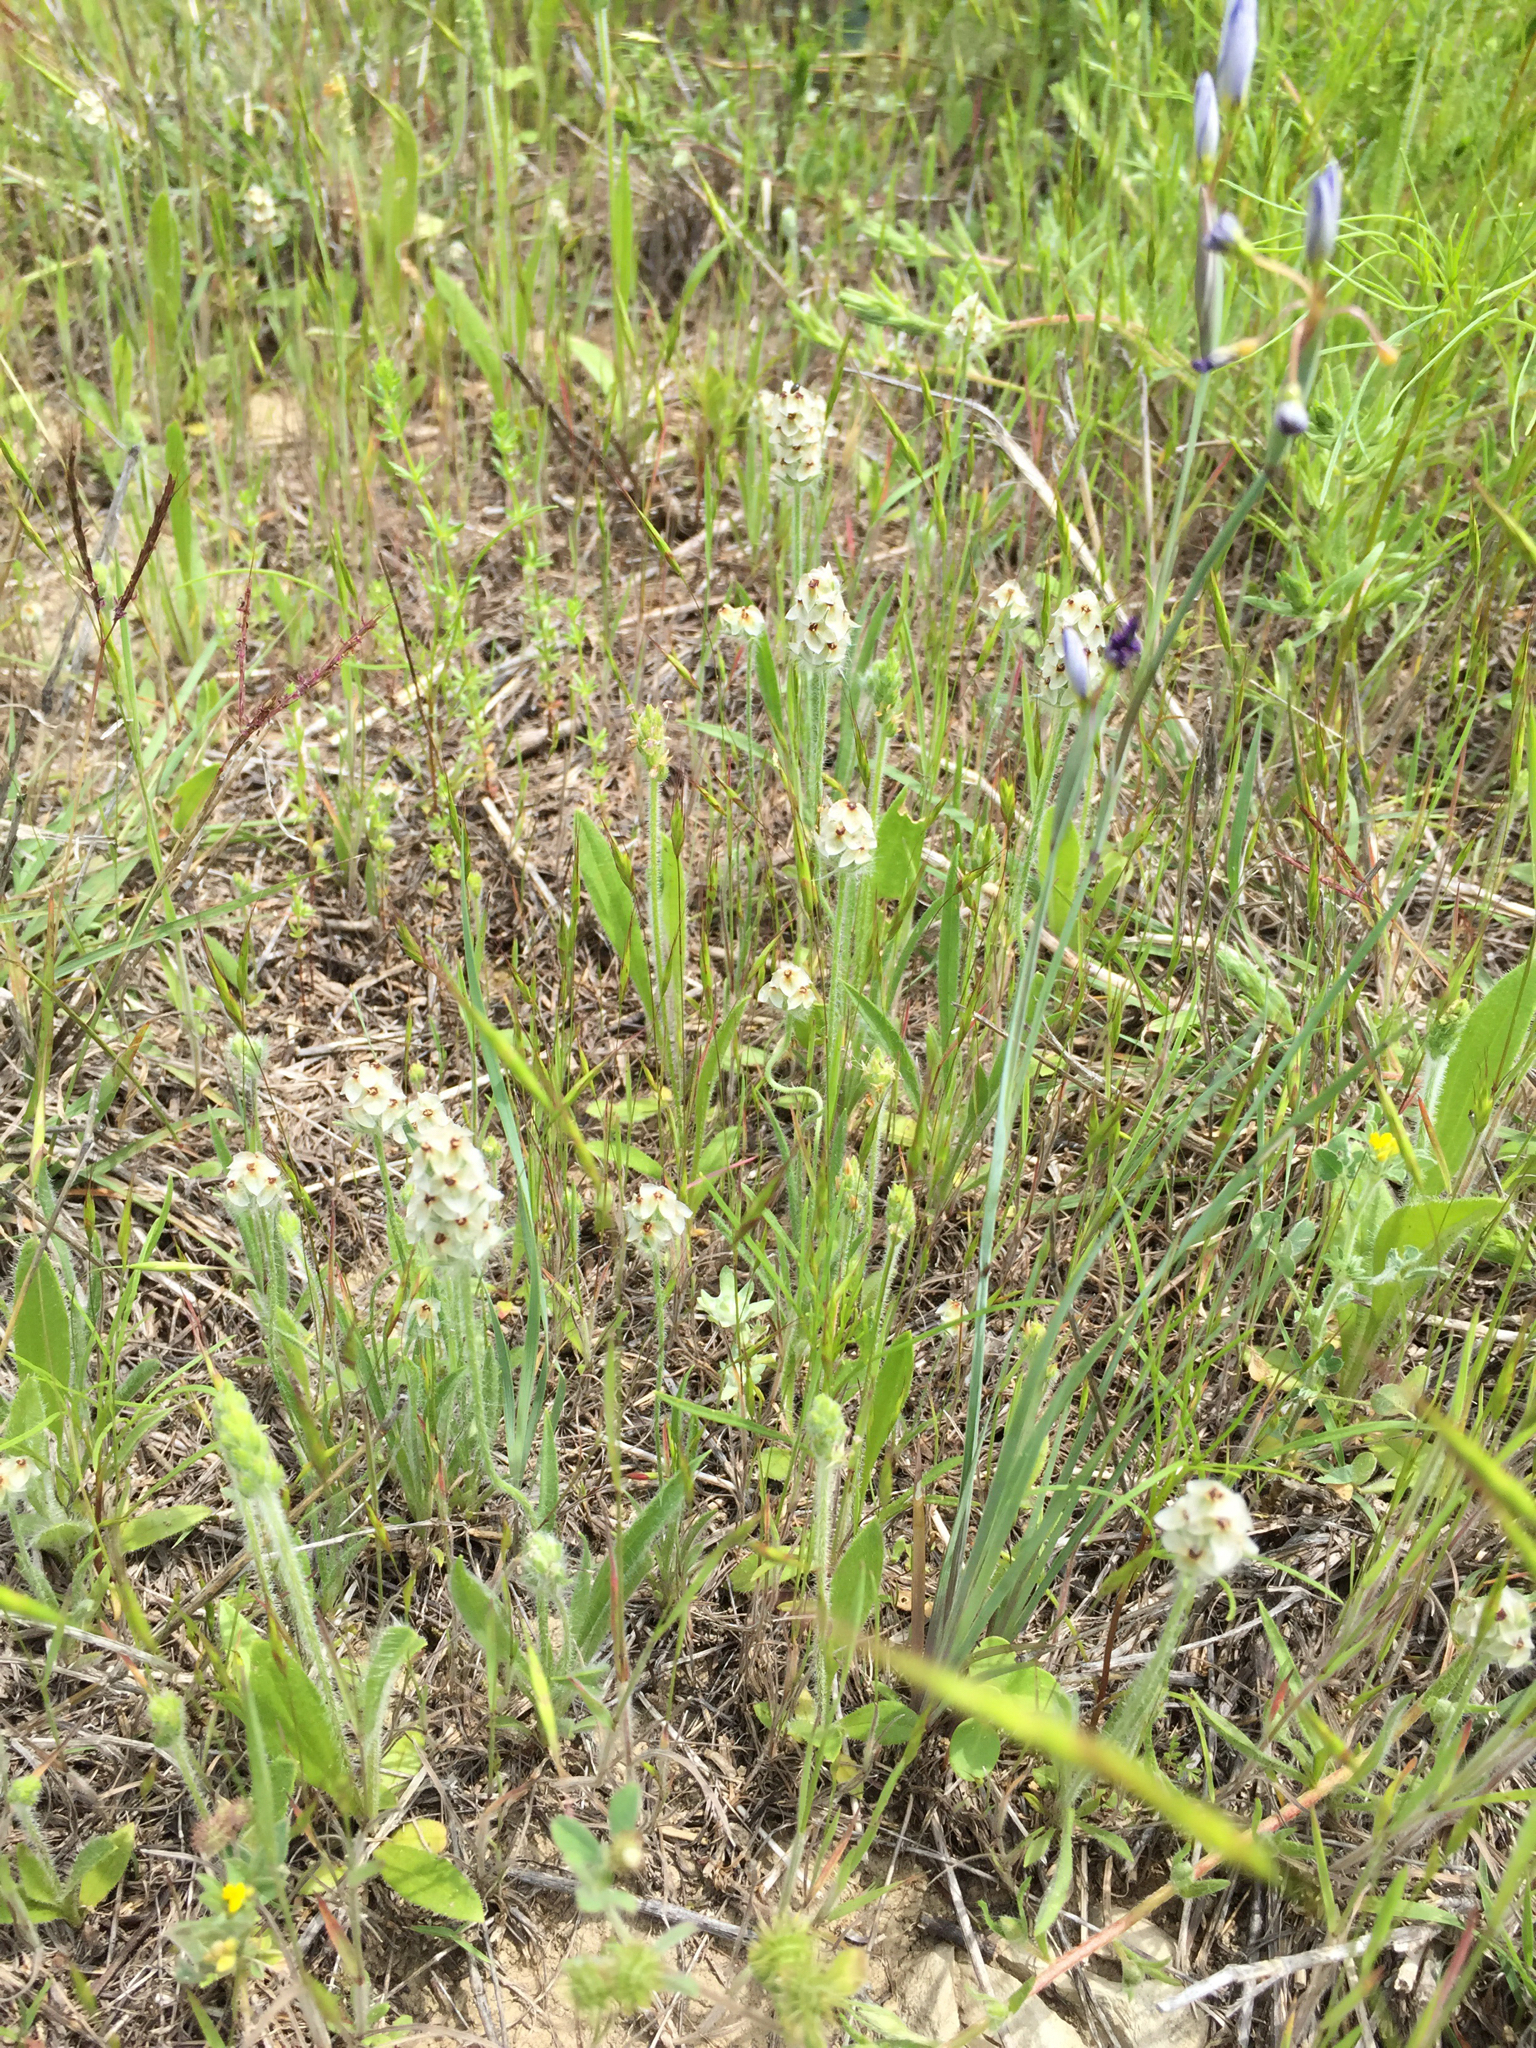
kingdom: Plantae
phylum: Tracheophyta
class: Magnoliopsida
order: Lamiales
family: Plantaginaceae
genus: Plantago
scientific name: Plantago helleri
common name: Heller's plantain
